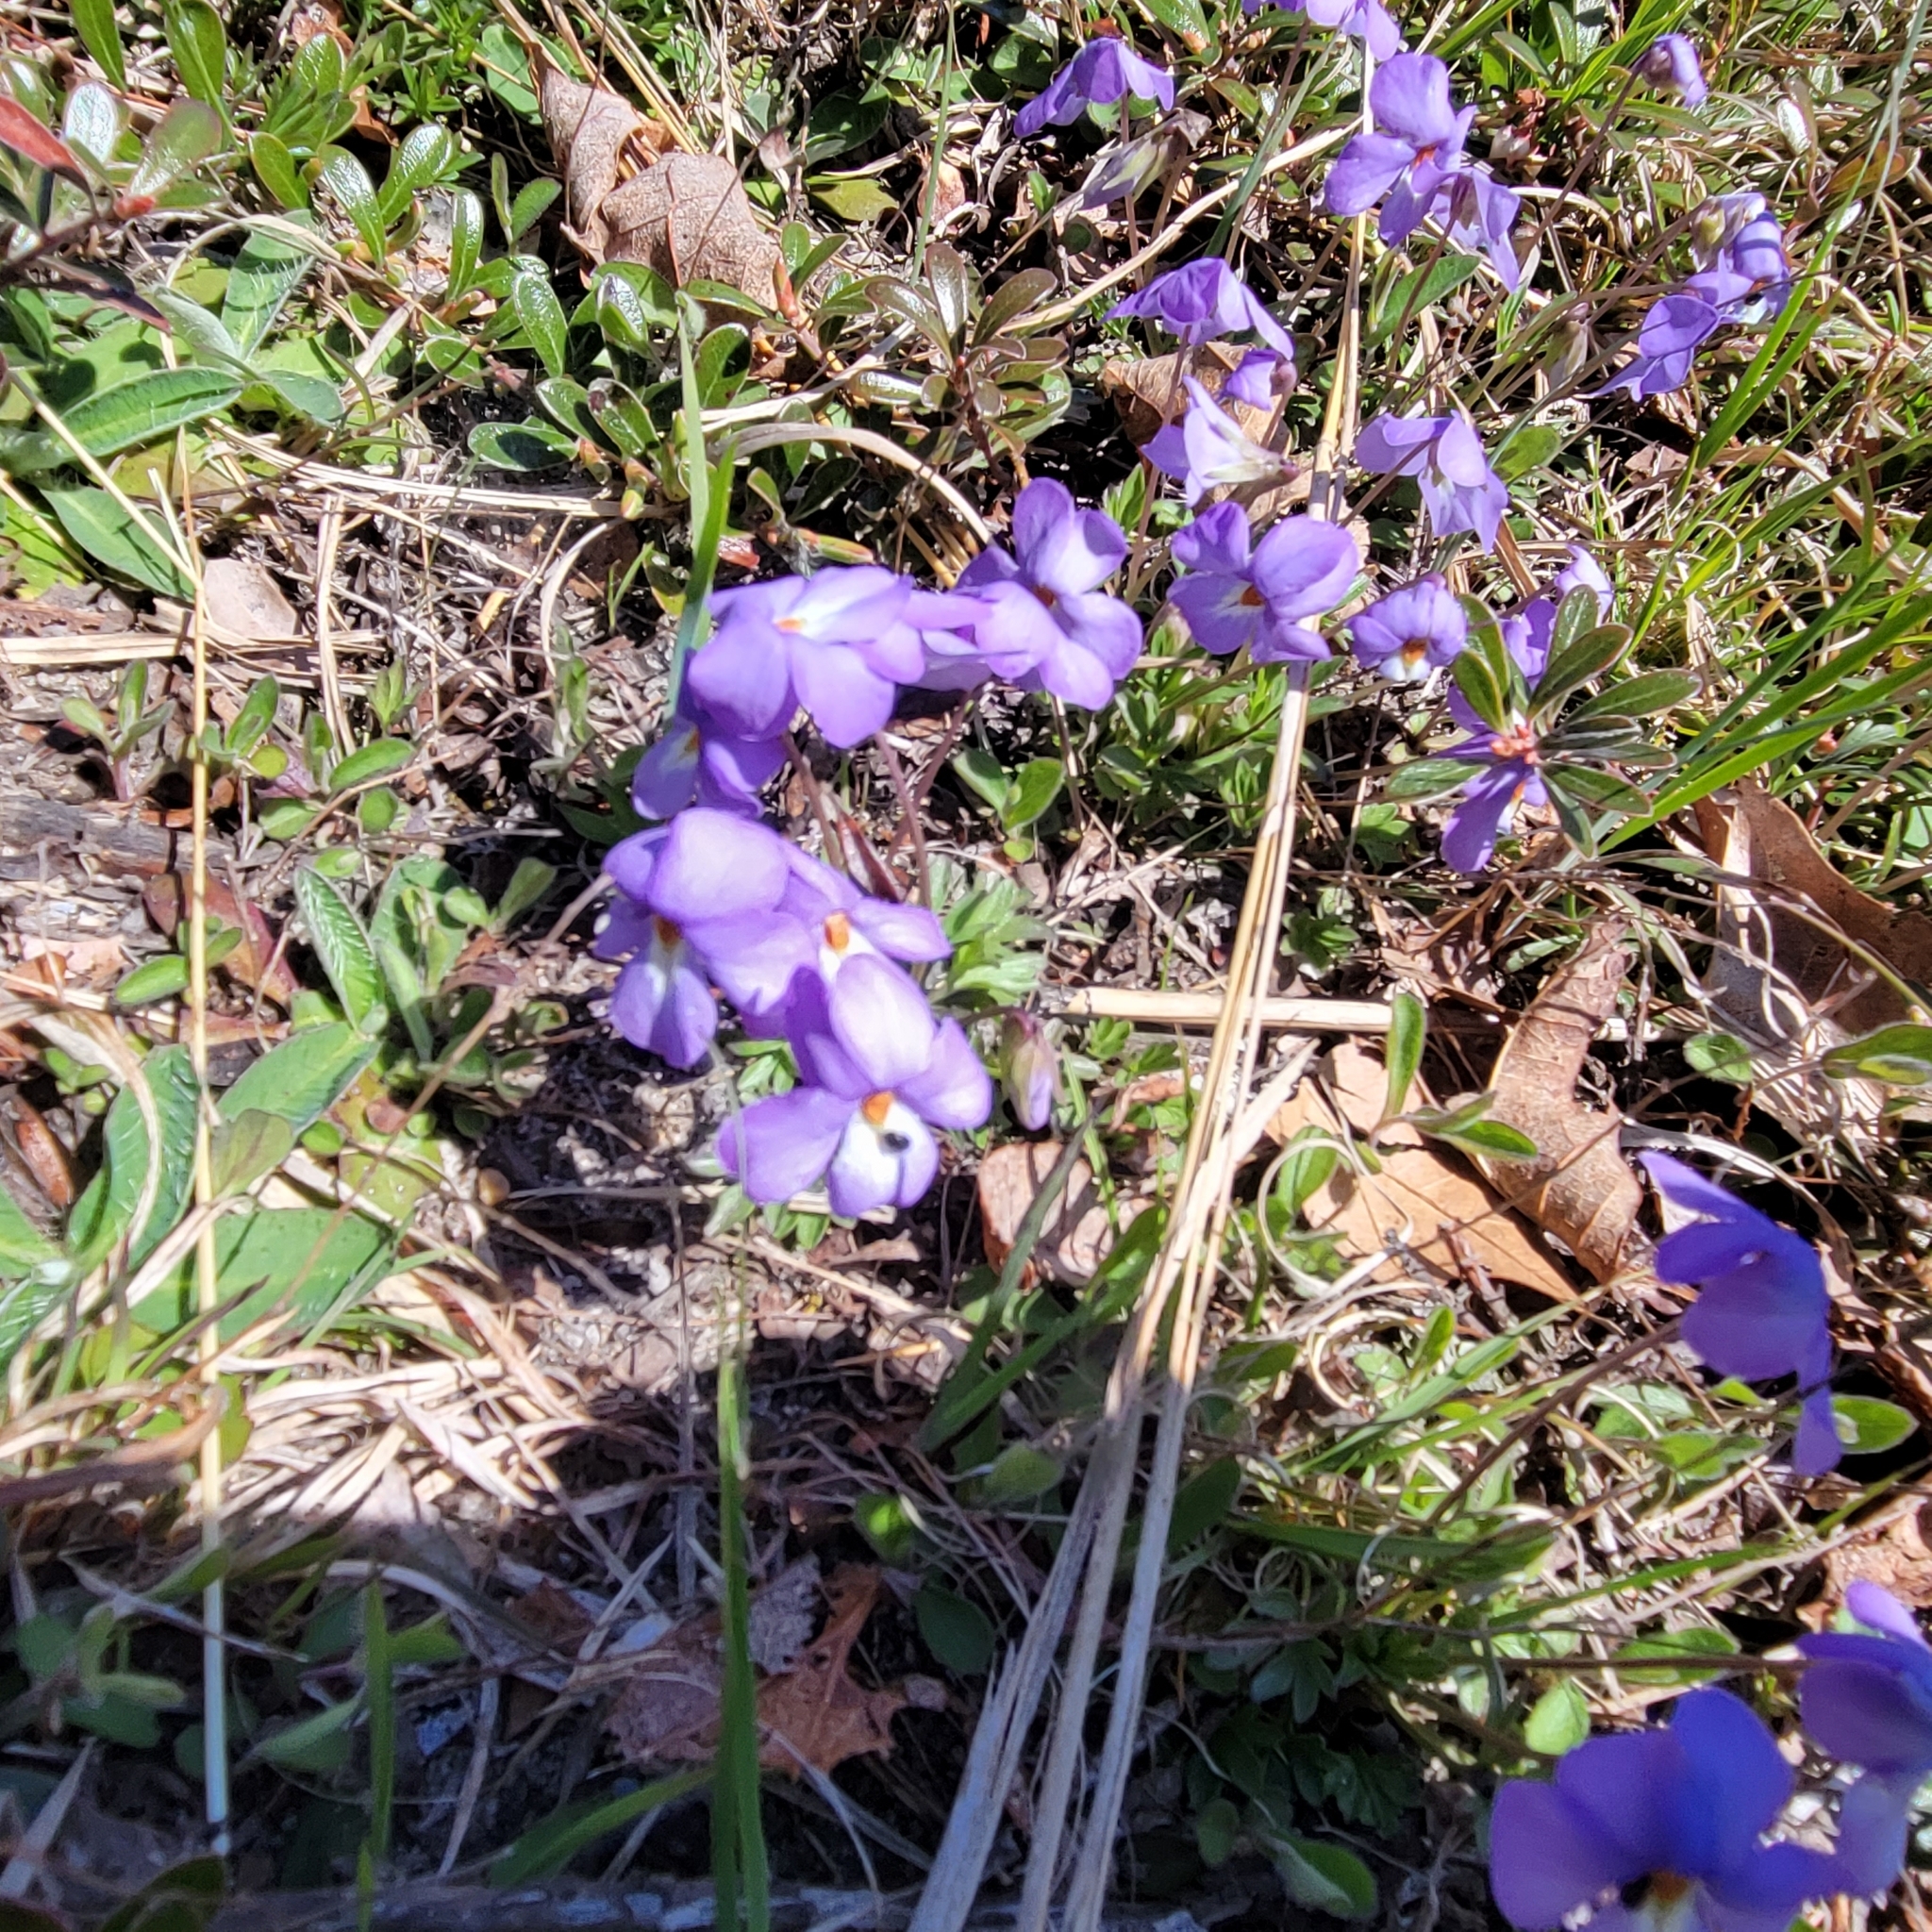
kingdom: Plantae
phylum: Tracheophyta
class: Magnoliopsida
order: Malpighiales
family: Violaceae
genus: Viola
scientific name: Viola pedata
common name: Pansy violet
